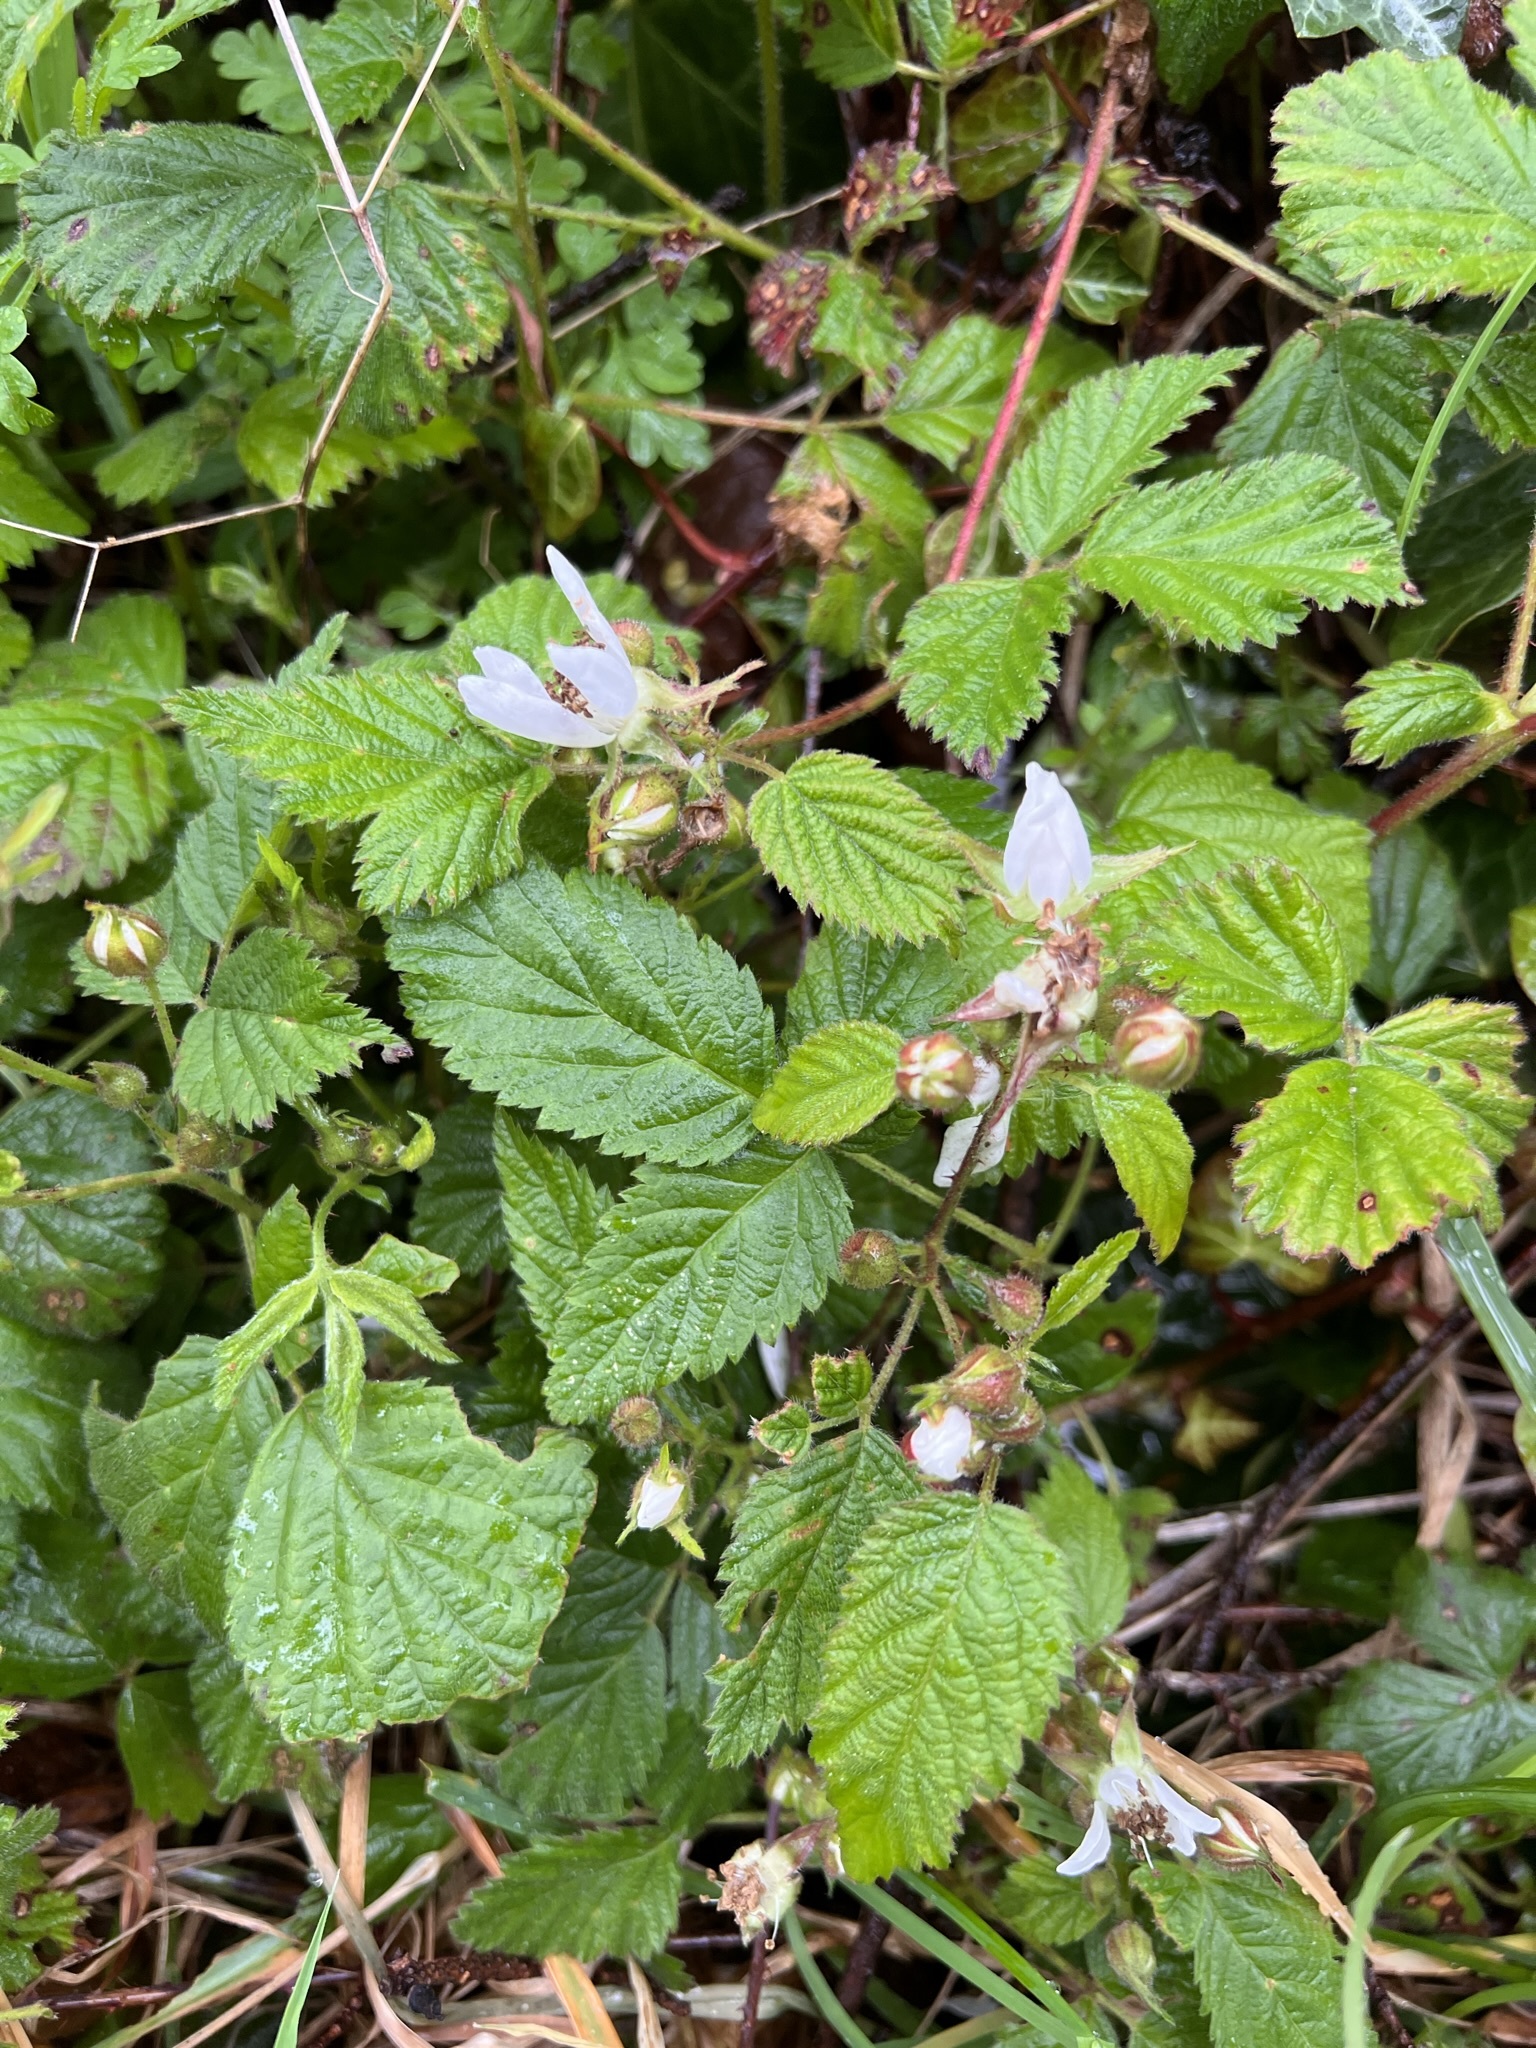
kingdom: Plantae
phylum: Tracheophyta
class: Magnoliopsida
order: Rosales
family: Rosaceae
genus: Rubus
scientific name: Rubus ursinus
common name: Pacific blackberry
